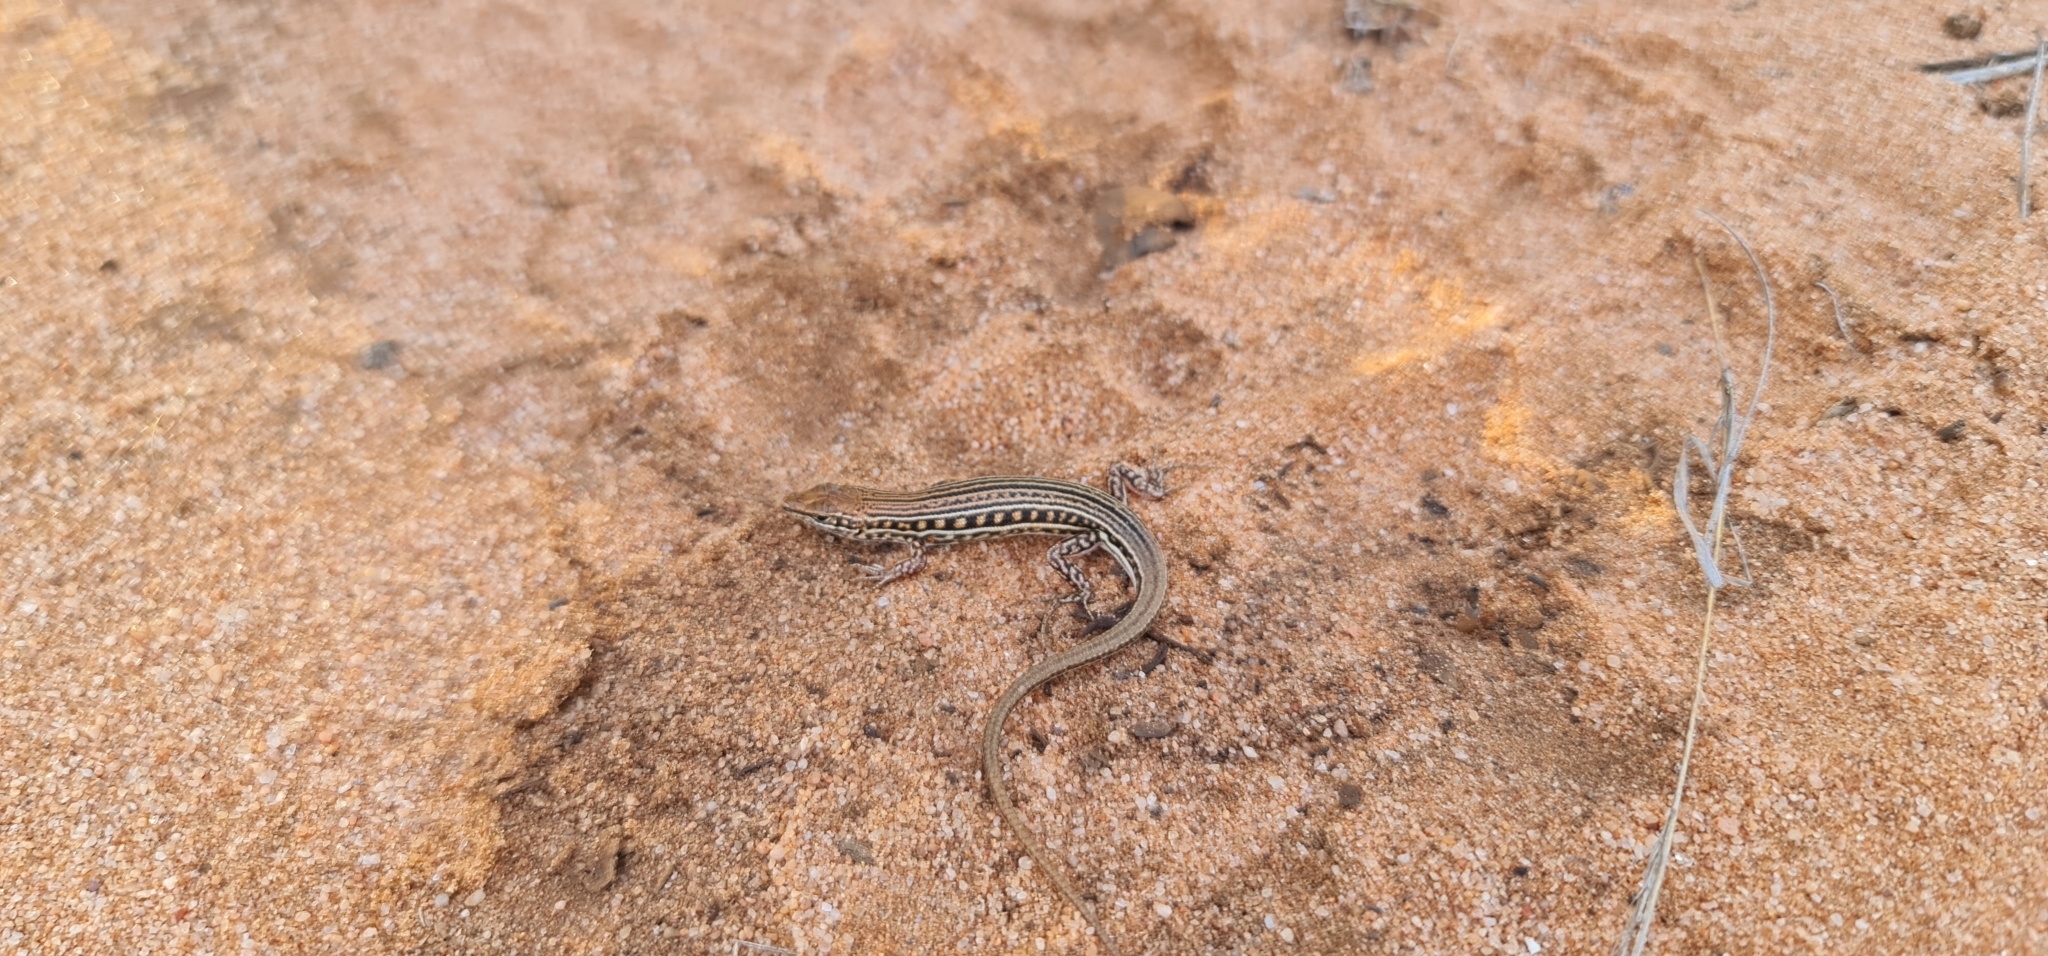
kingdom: Animalia
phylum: Chordata
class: Squamata
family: Scincidae
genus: Ctenotus
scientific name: Ctenotus schomburgkii
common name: Barred wedge-snout ctenotus
